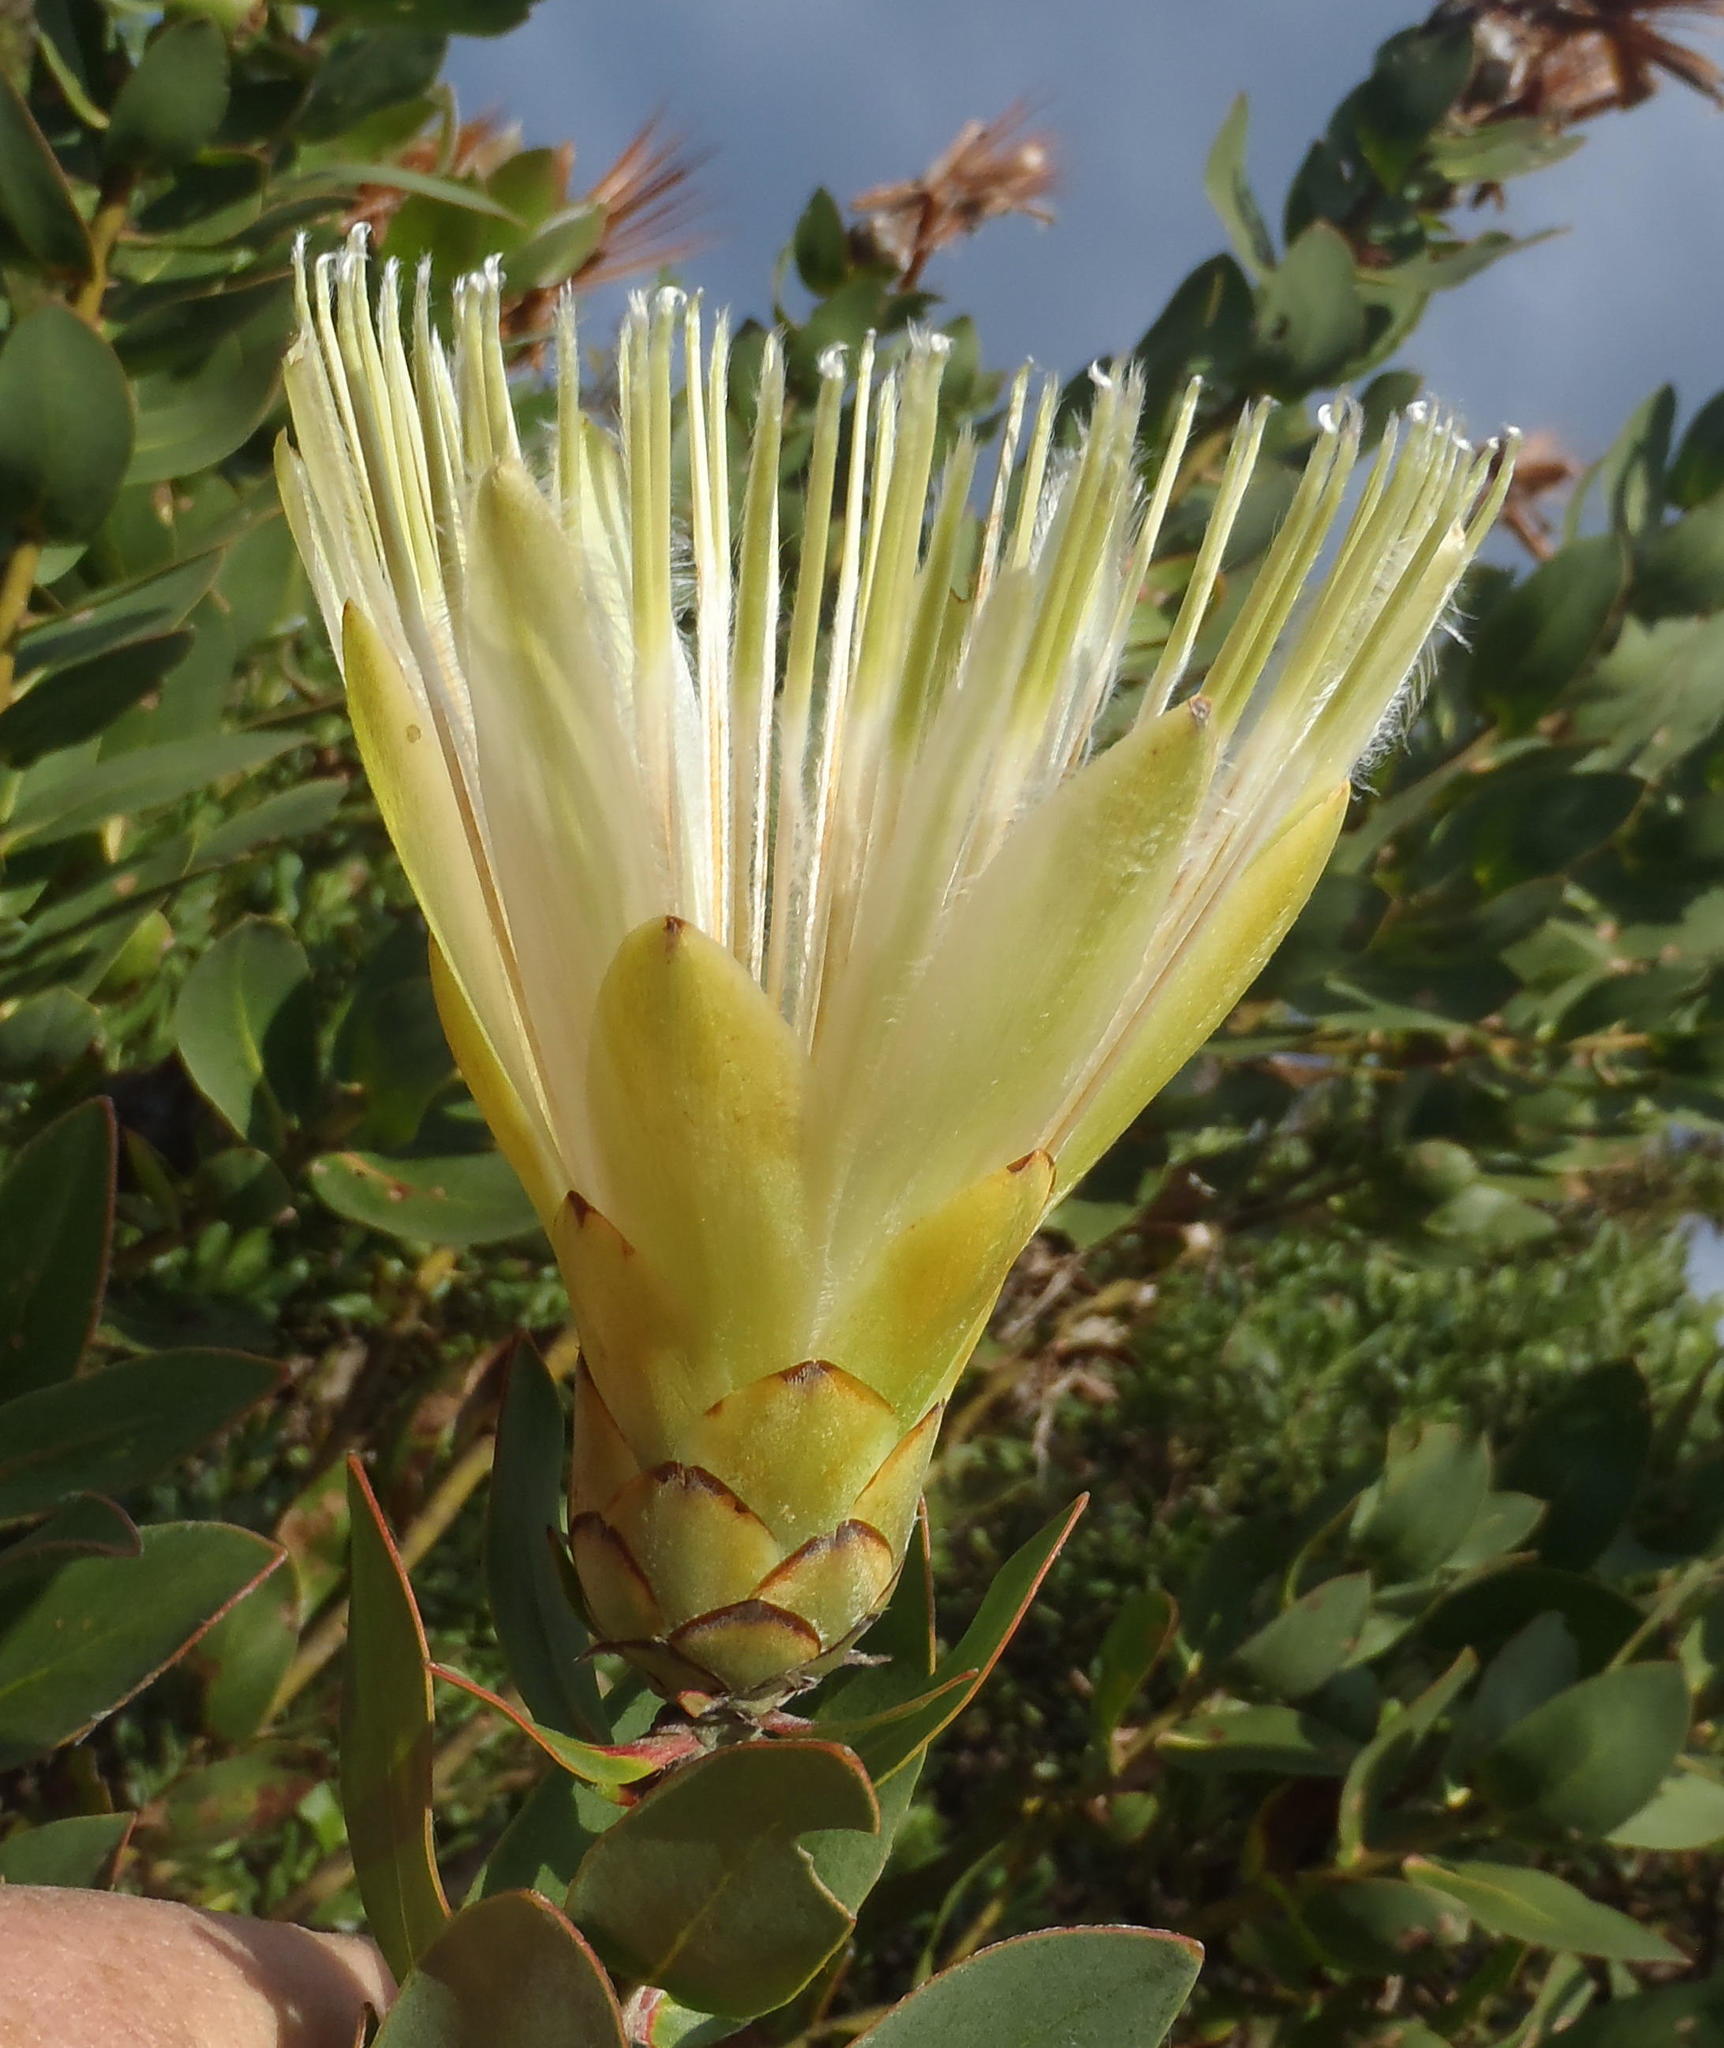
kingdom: Plantae
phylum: Tracheophyta
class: Magnoliopsida
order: Proteales
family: Proteaceae
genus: Protea
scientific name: Protea aurea
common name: Shuttlecock sugarbush
